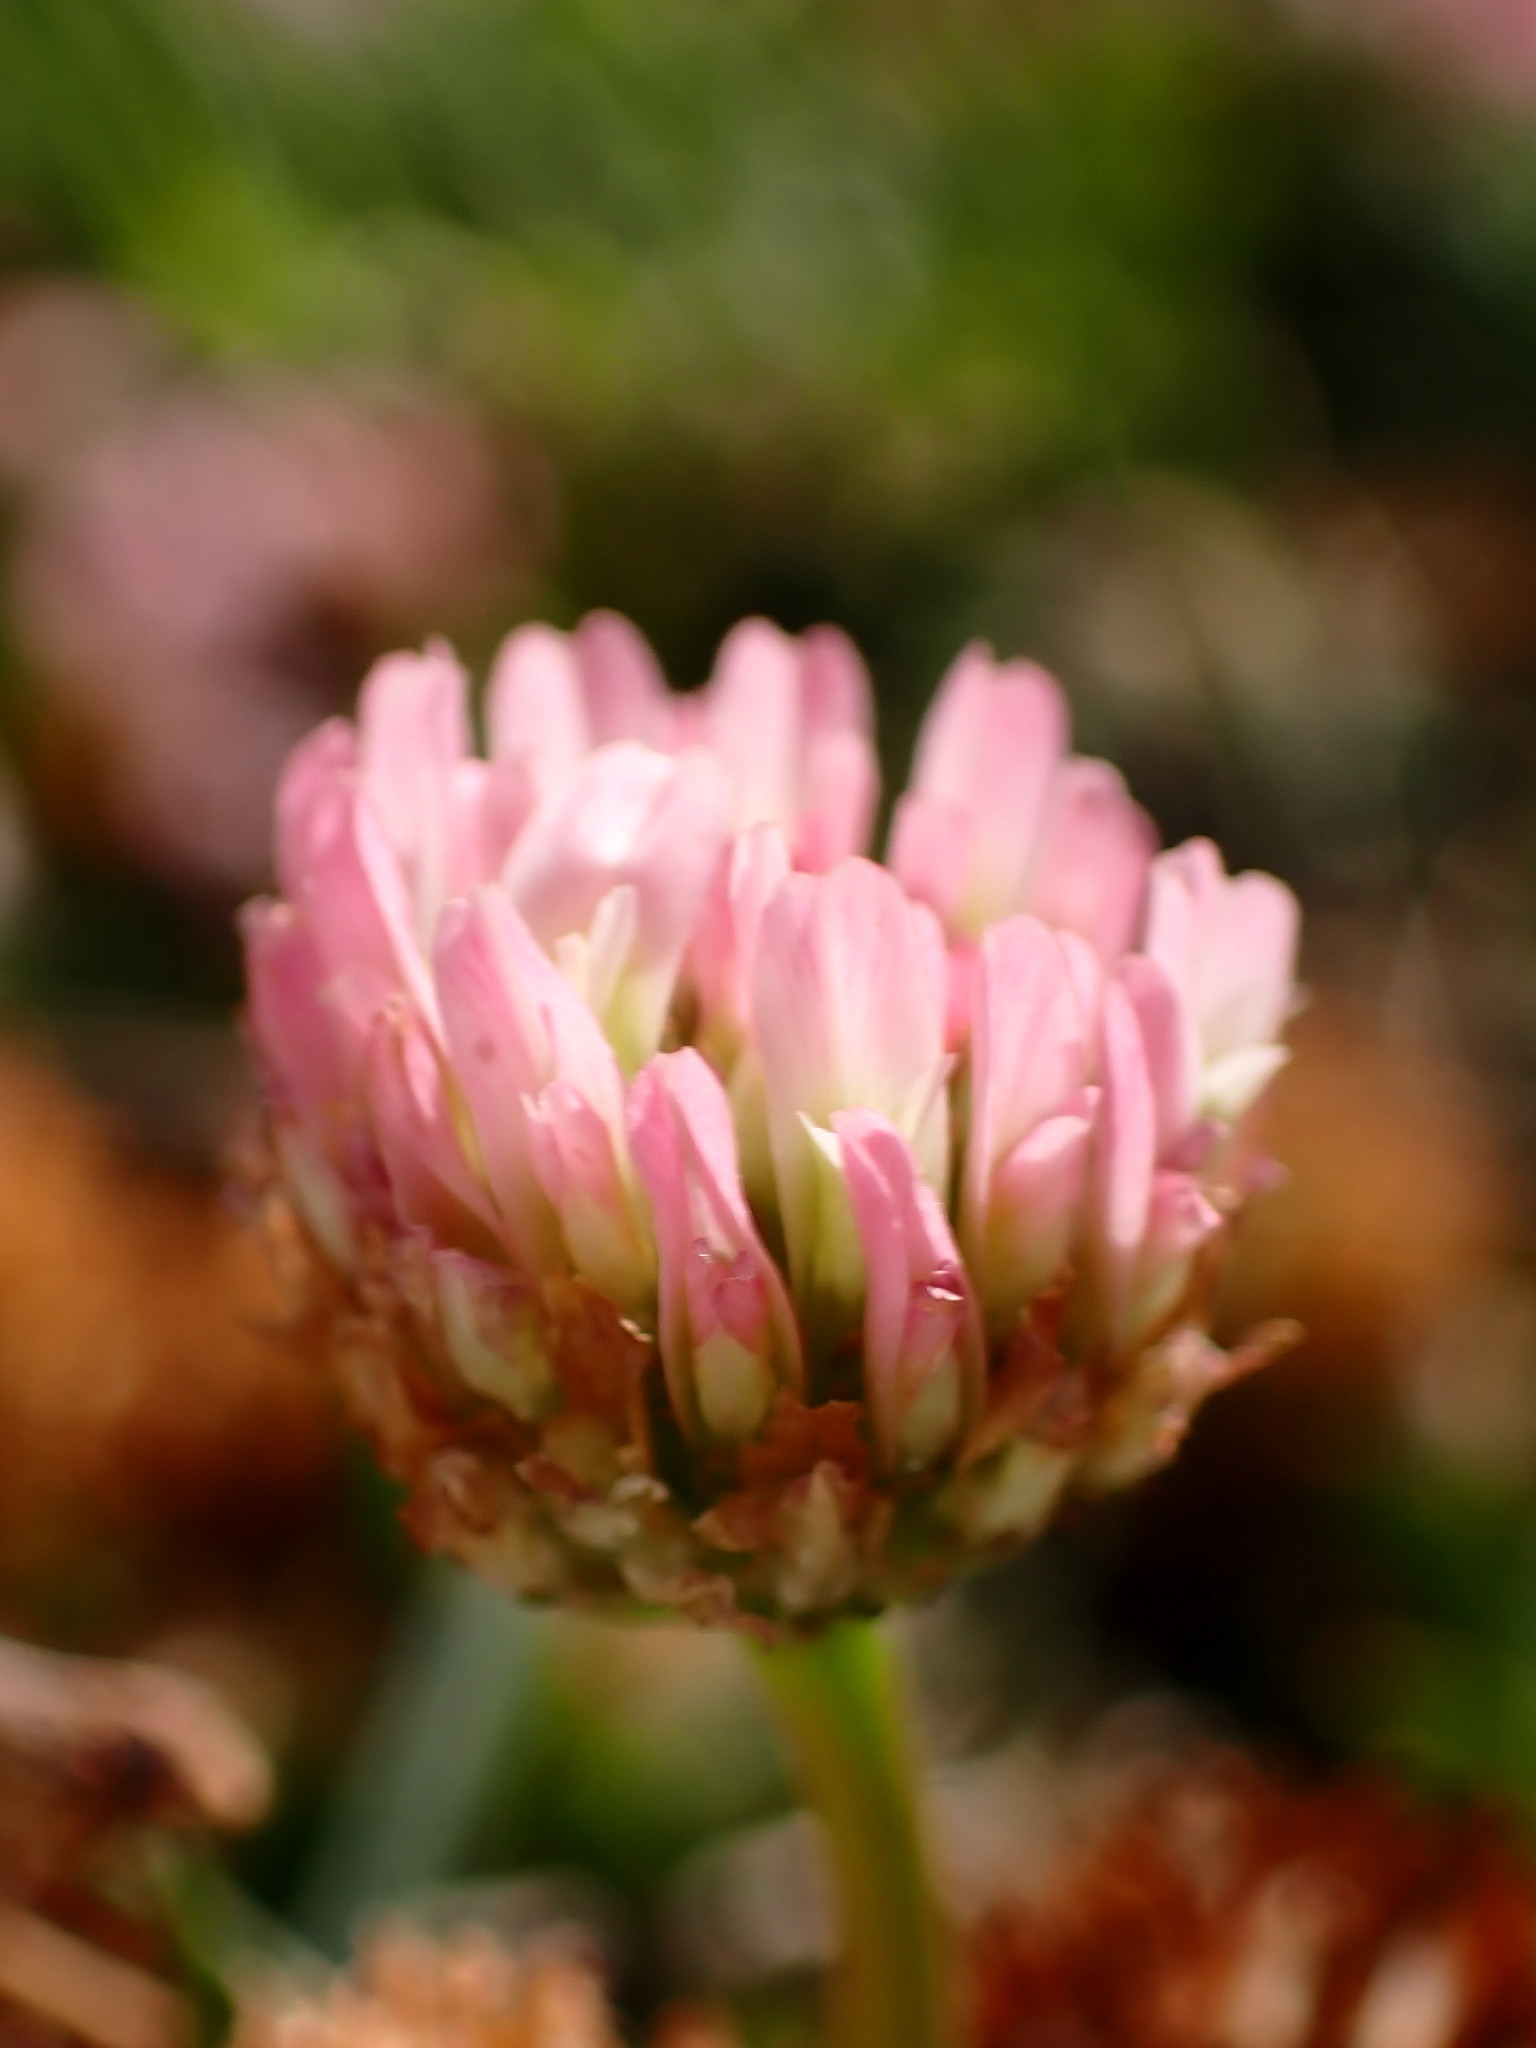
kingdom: Plantae
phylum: Tracheophyta
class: Magnoliopsida
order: Fabales
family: Fabaceae
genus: Trifolium
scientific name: Trifolium fragiferum
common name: Strawberry clover
